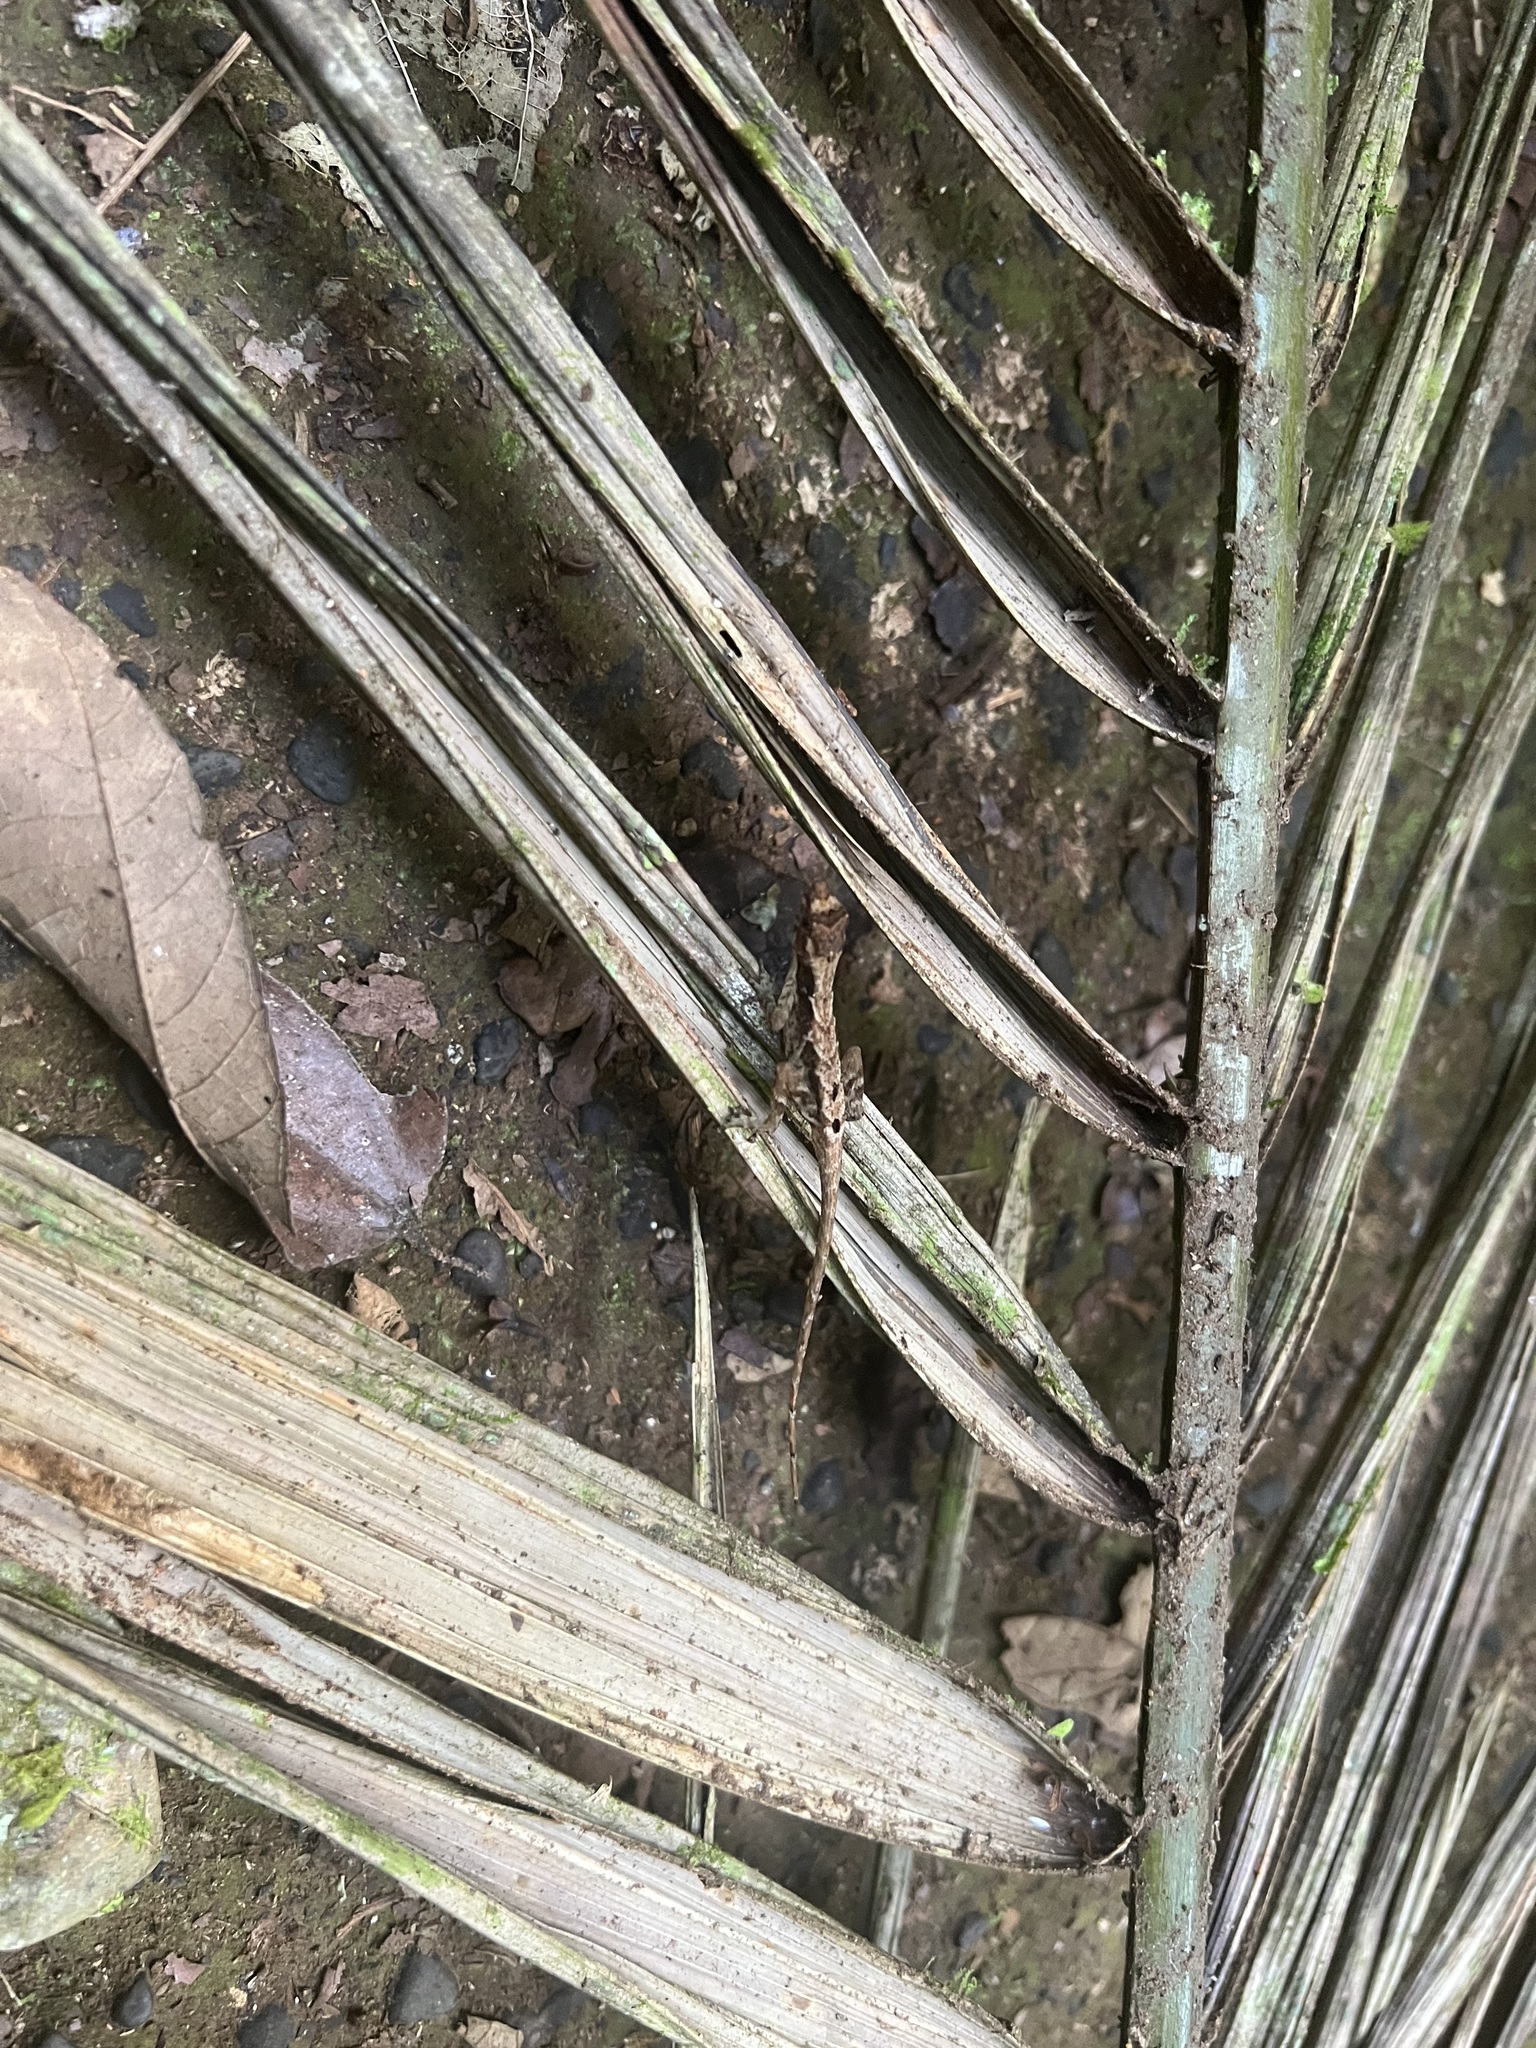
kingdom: Animalia
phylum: Chordata
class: Squamata
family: Dactyloidae
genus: Anolis
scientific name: Anolis humilis
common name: Humble anole
